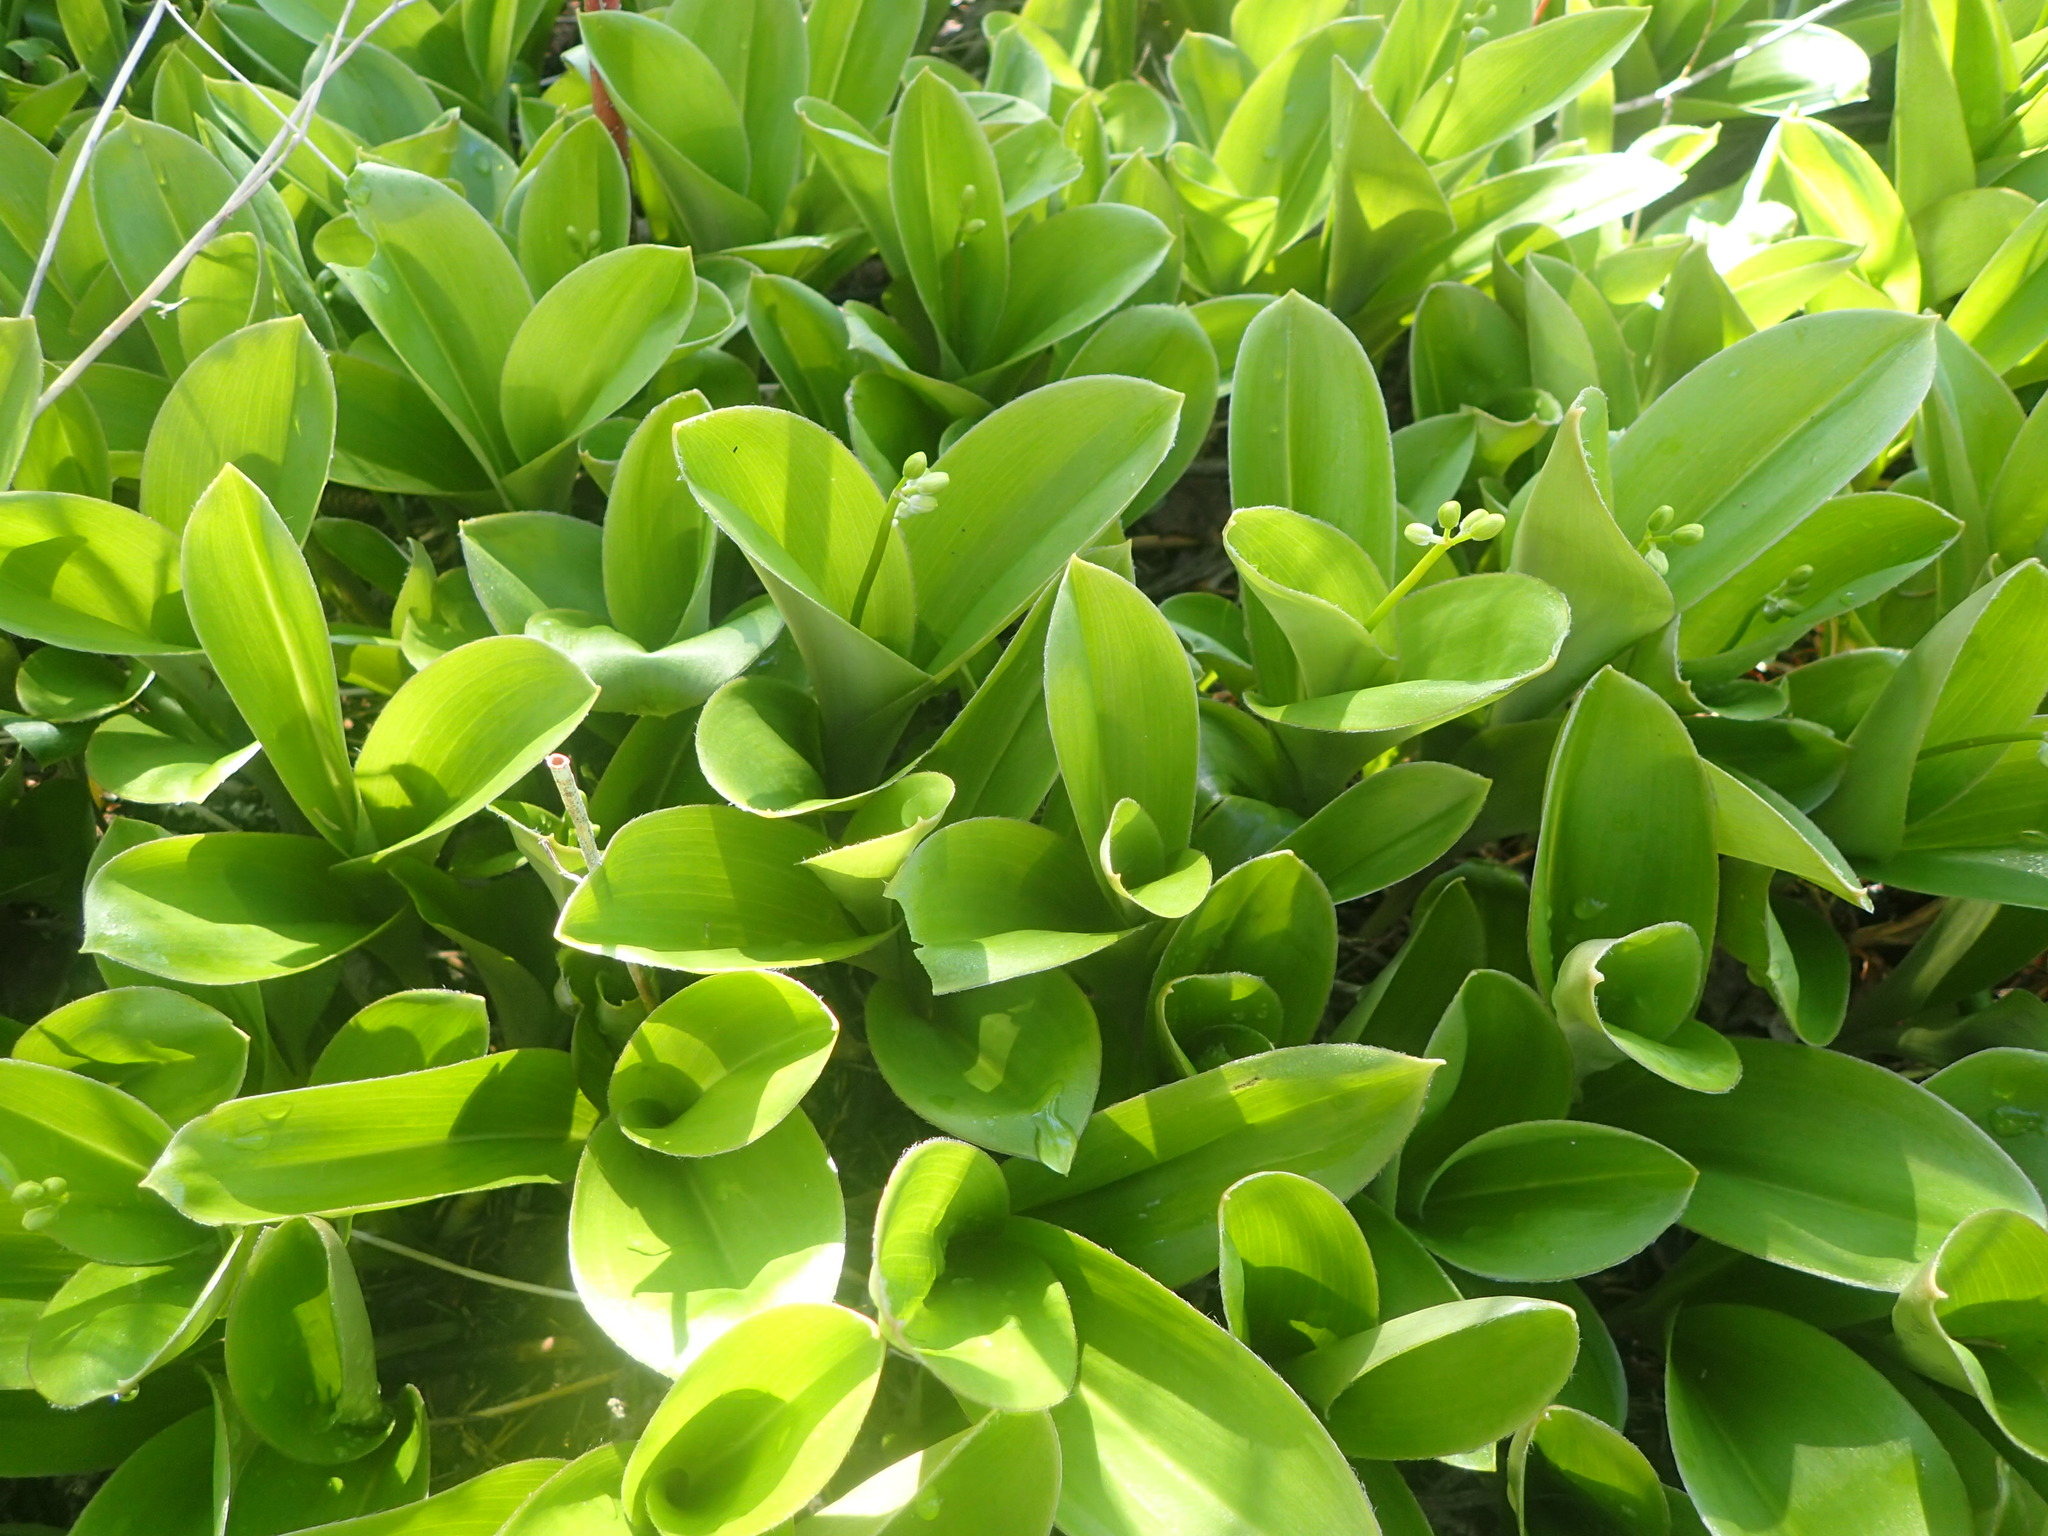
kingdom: Plantae
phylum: Tracheophyta
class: Liliopsida
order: Liliales
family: Liliaceae
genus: Clintonia
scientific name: Clintonia borealis
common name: Yellow clintonia
